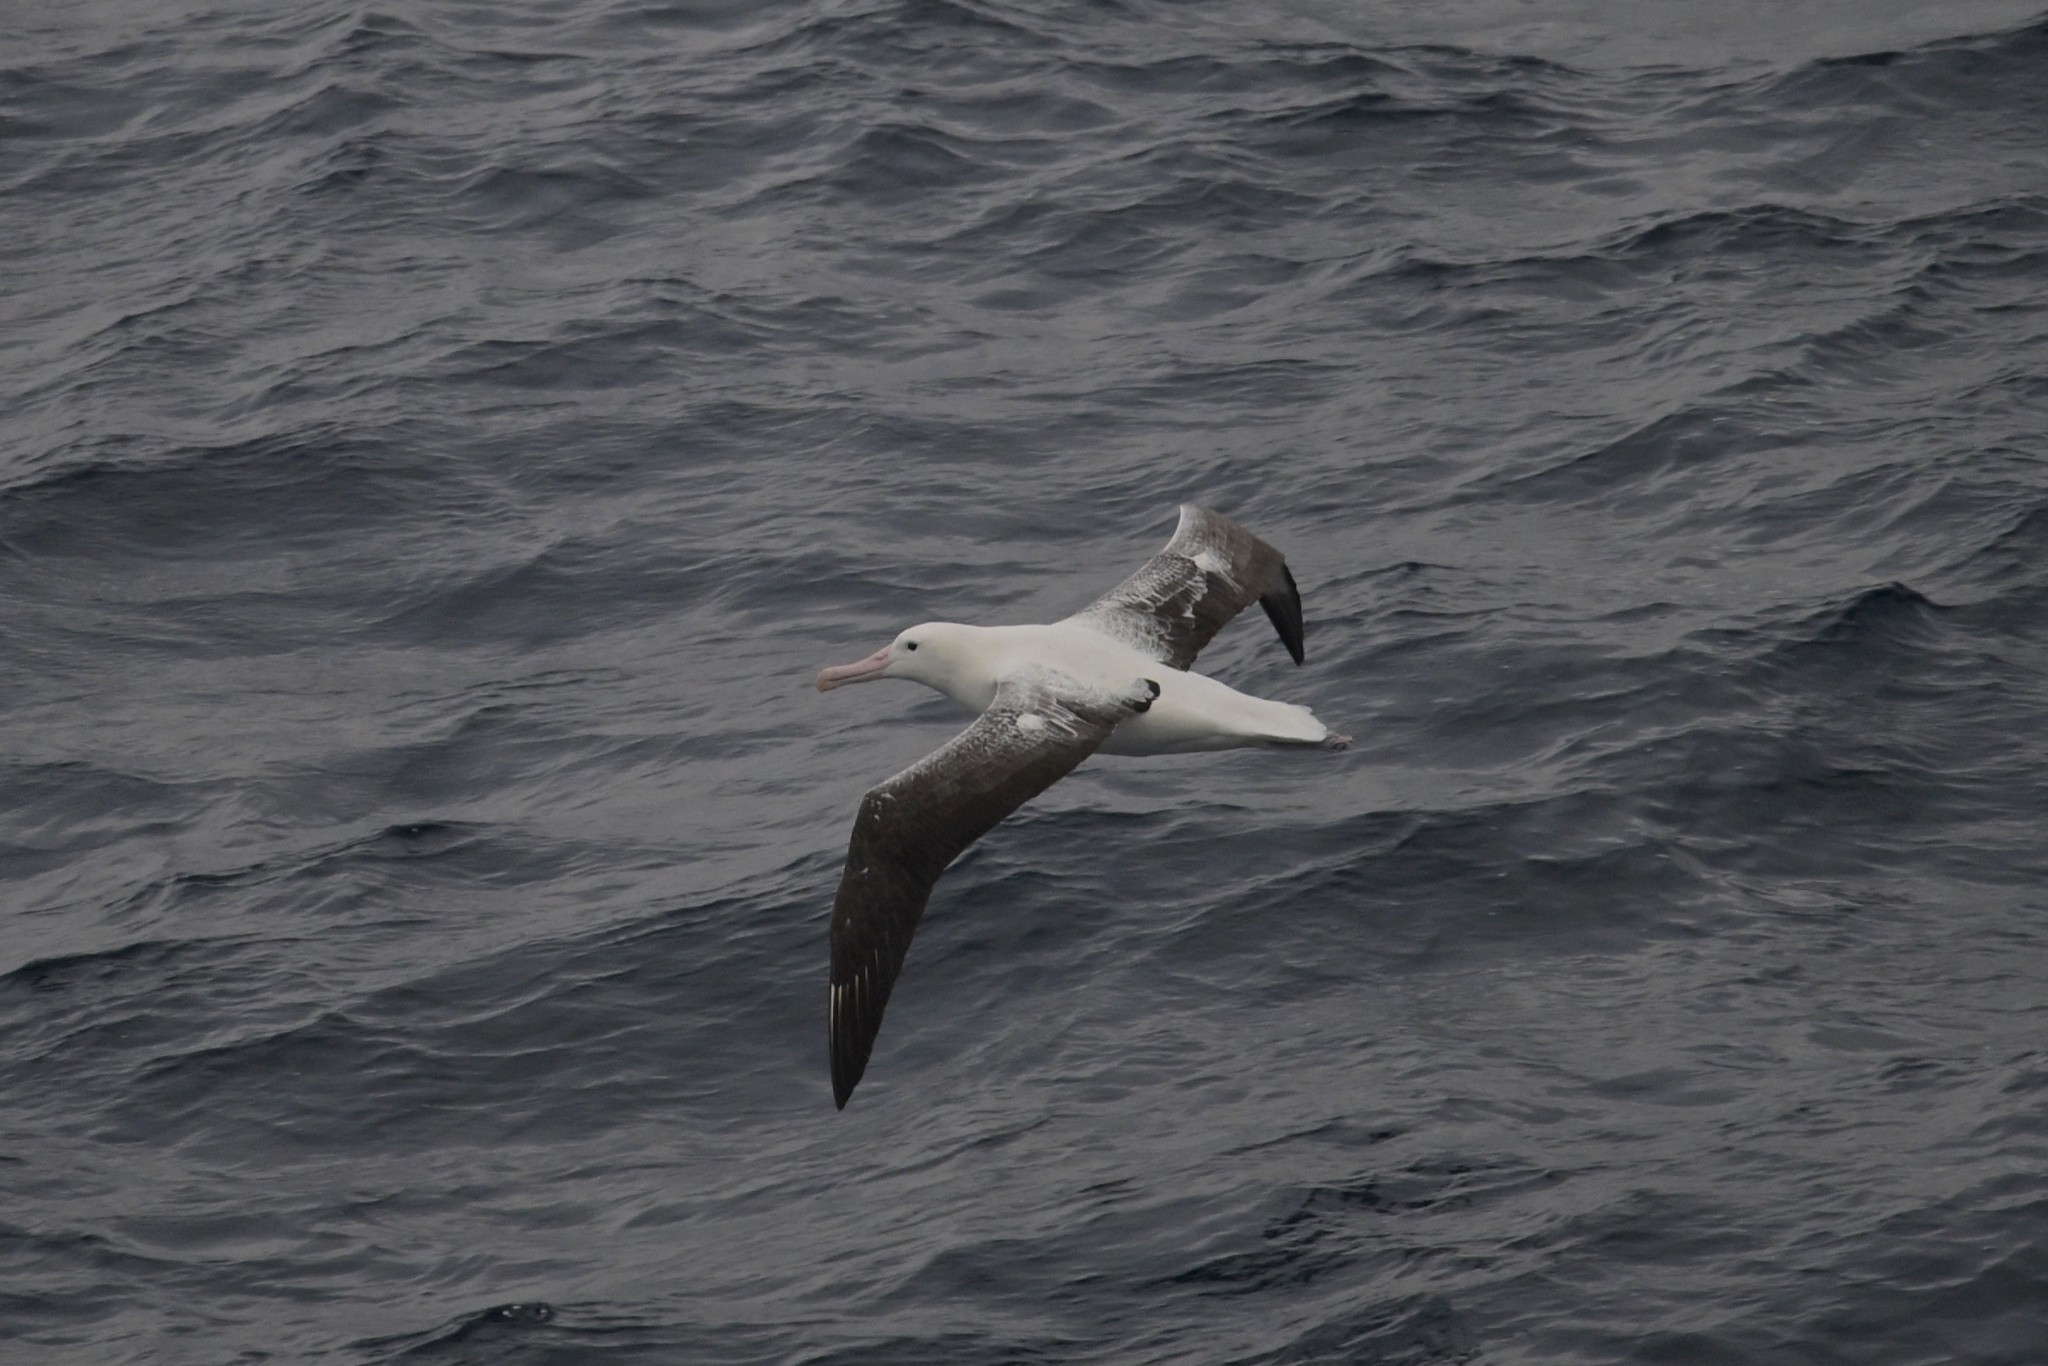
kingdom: Animalia
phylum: Chordata
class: Aves
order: Procellariiformes
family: Diomedeidae
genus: Diomedea
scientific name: Diomedea epomophora
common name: Southern royal albatross
